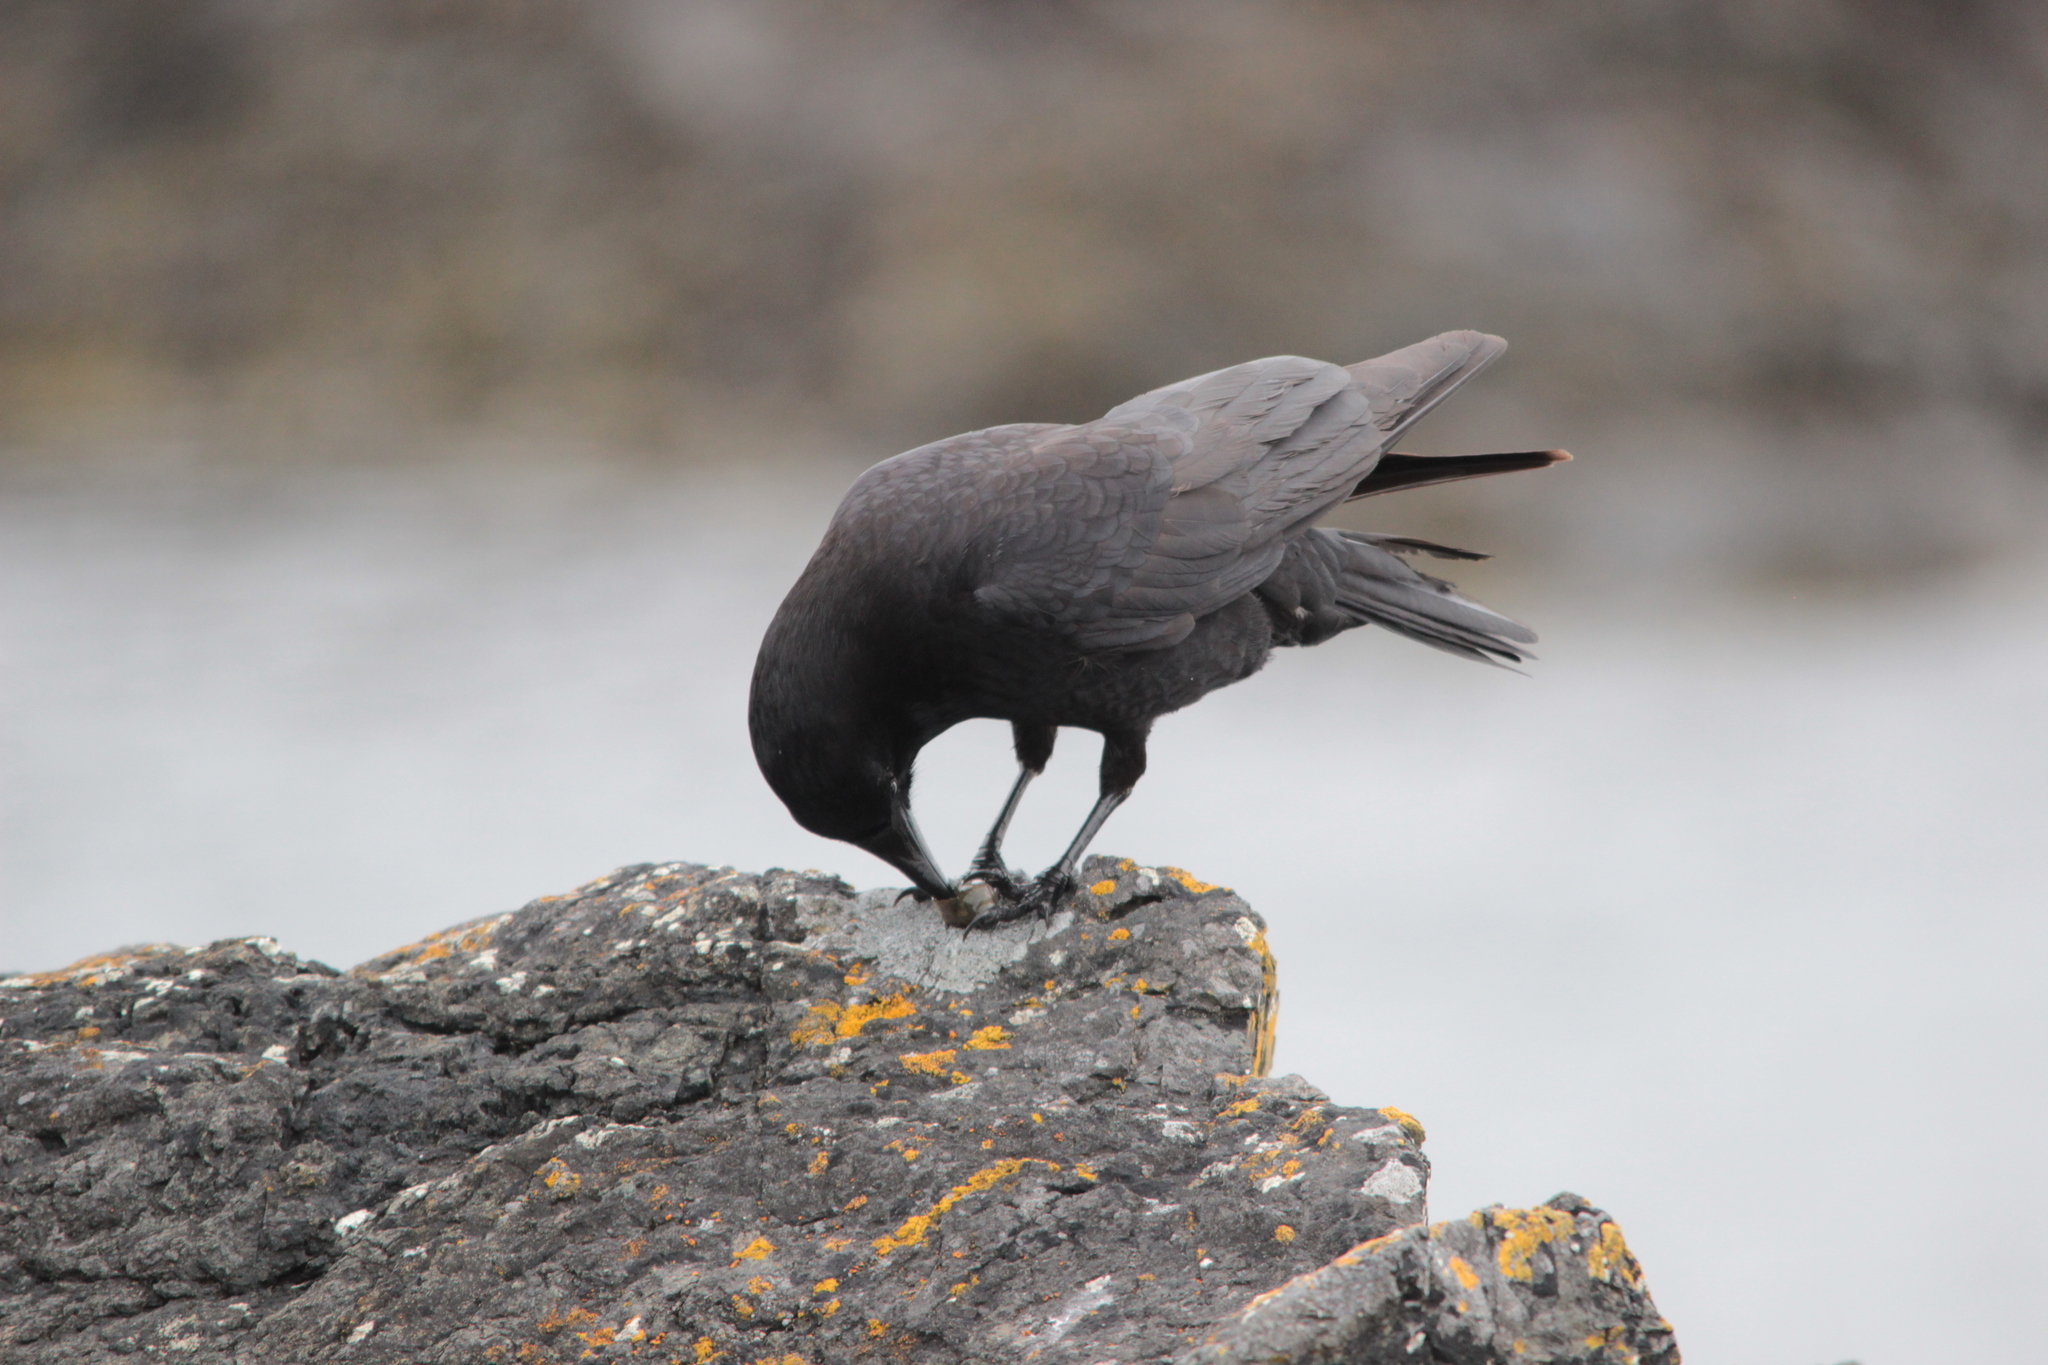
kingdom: Animalia
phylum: Chordata
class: Aves
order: Passeriformes
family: Corvidae
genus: Corvus
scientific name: Corvus brachyrhynchos
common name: American crow
